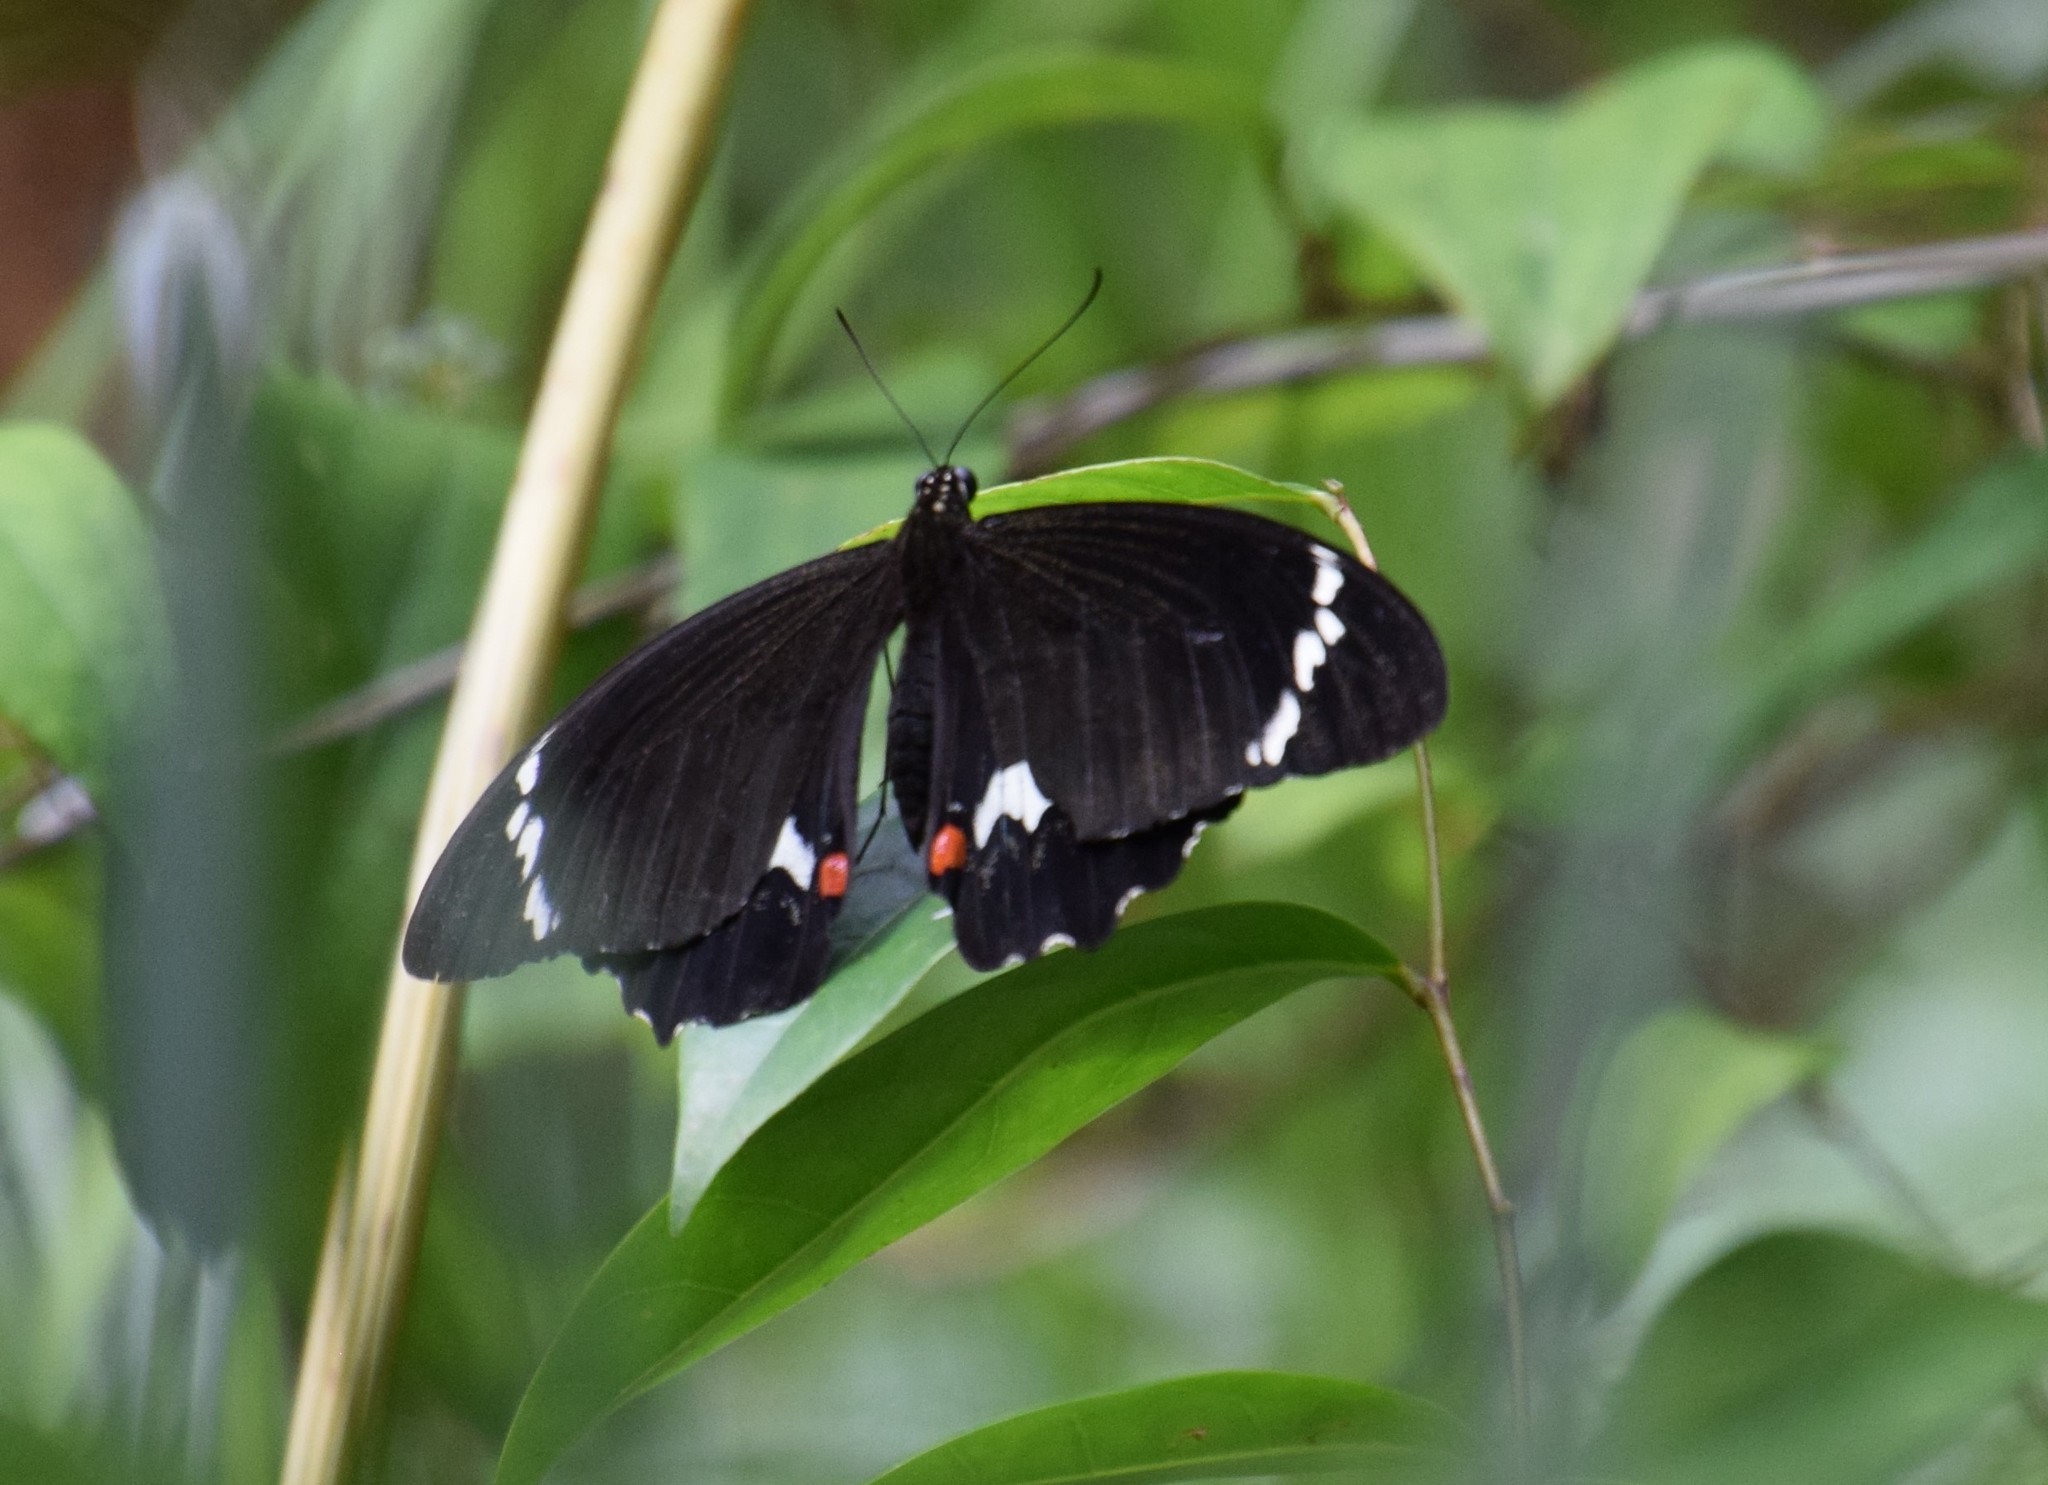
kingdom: Animalia
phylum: Arthropoda
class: Insecta
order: Lepidoptera
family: Papilionidae
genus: Papilio
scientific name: Papilio aegeus
